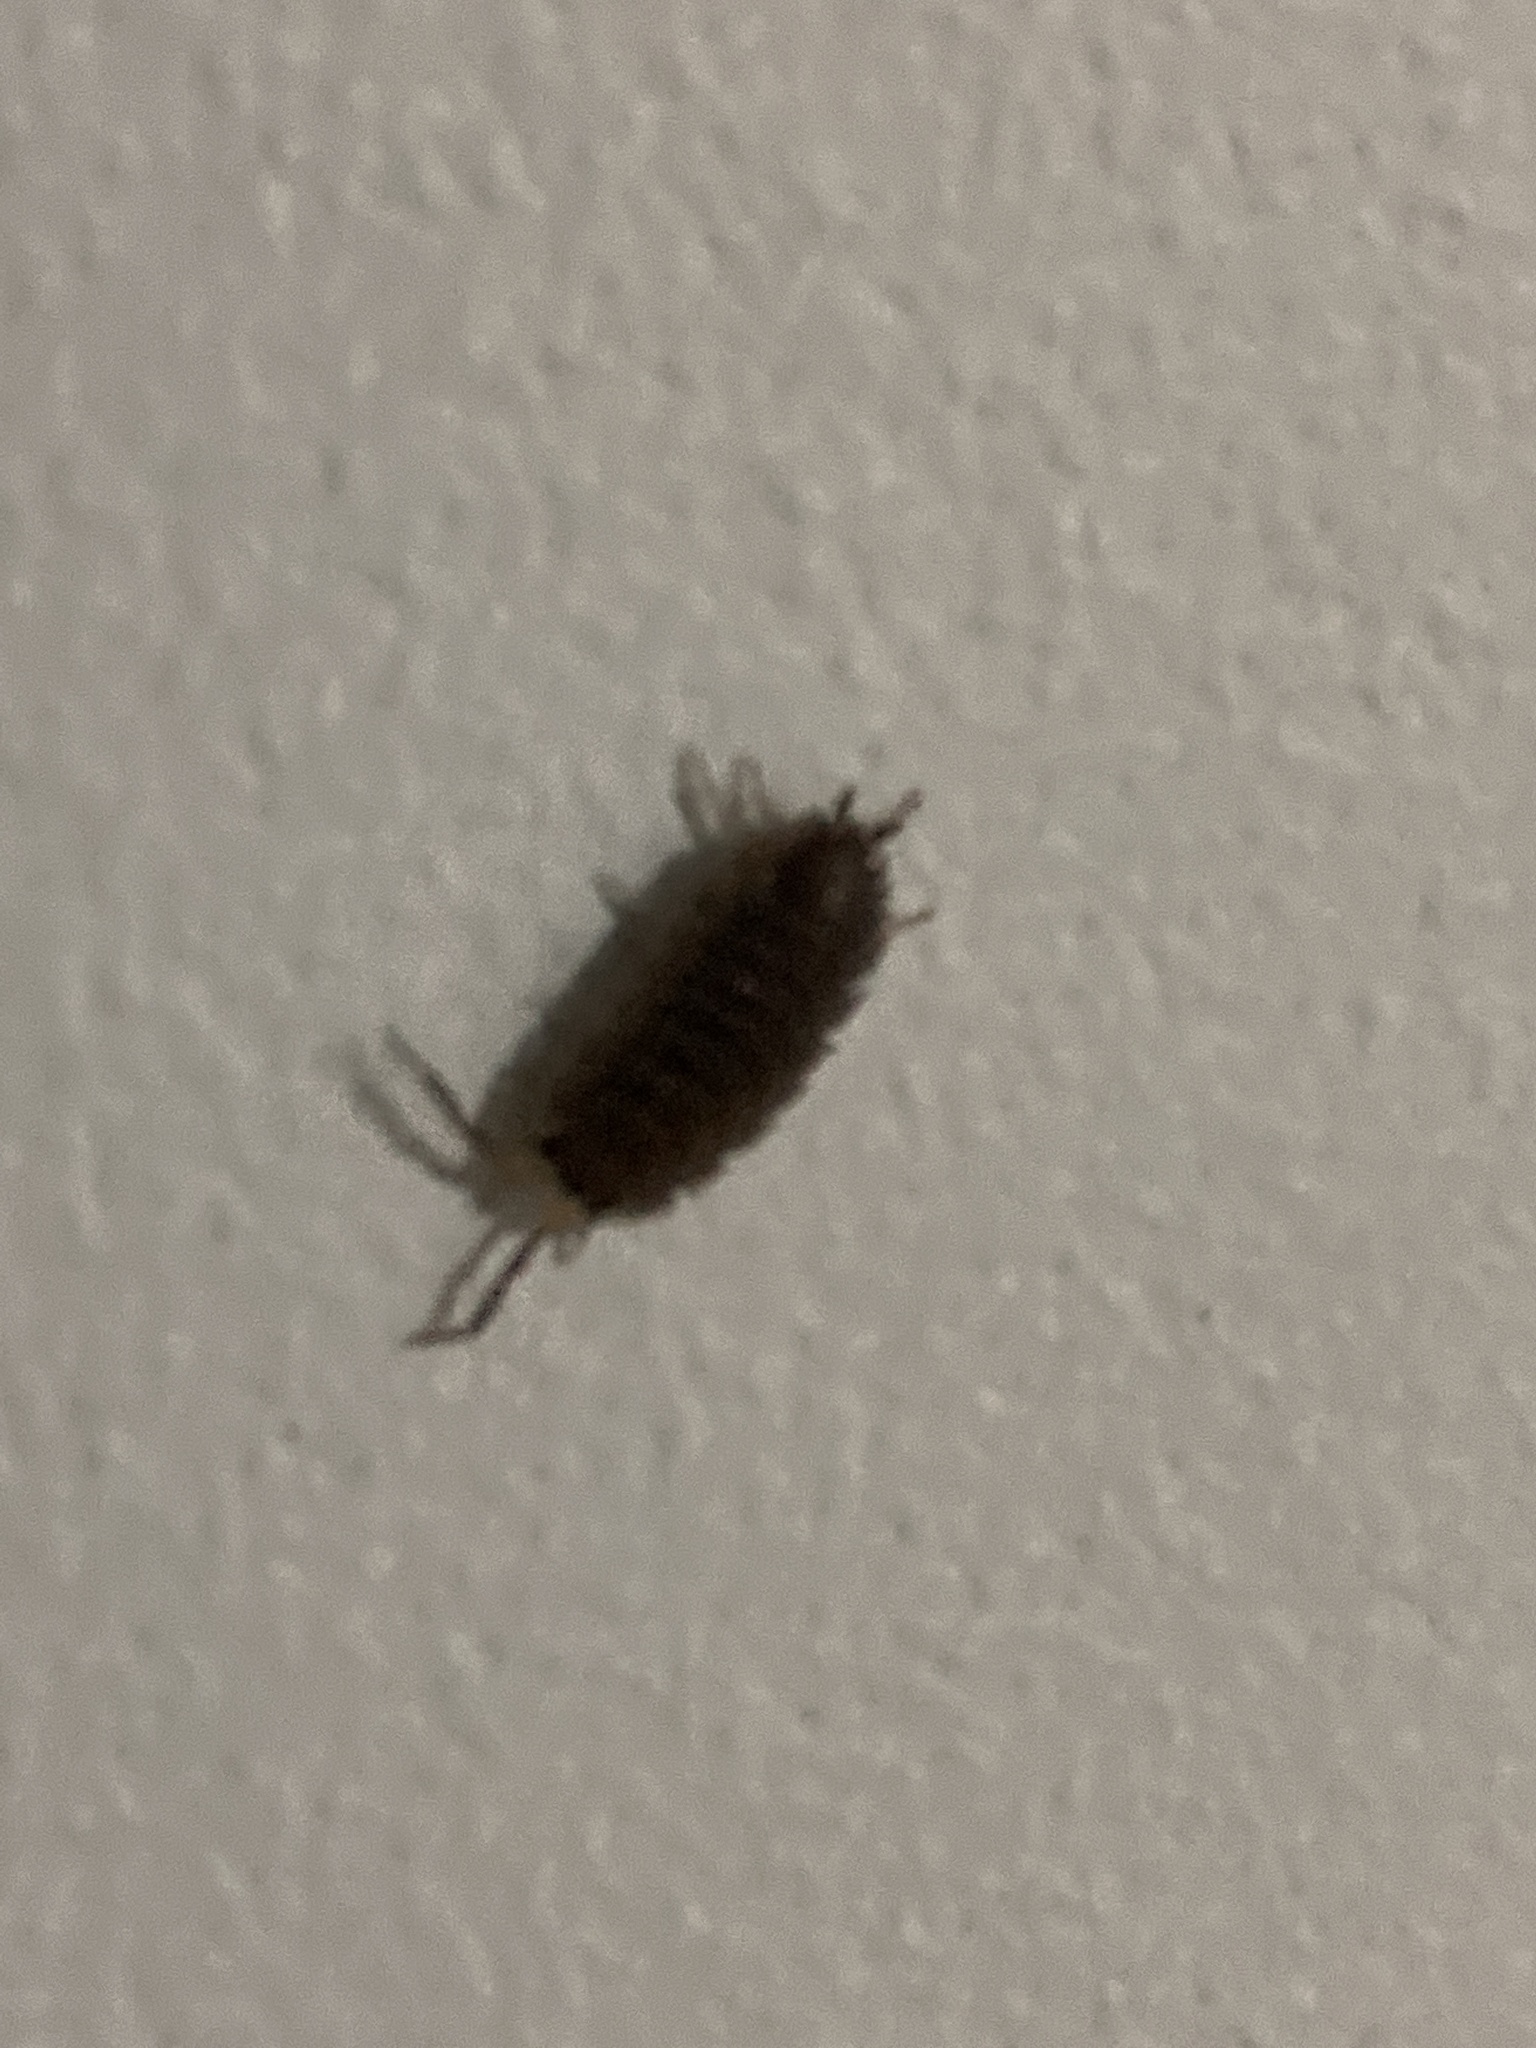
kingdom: Animalia
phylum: Arthropoda
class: Malacostraca
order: Isopoda
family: Porcellionidae
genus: Porcellio
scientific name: Porcellio scaber
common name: Common rough woodlouse
